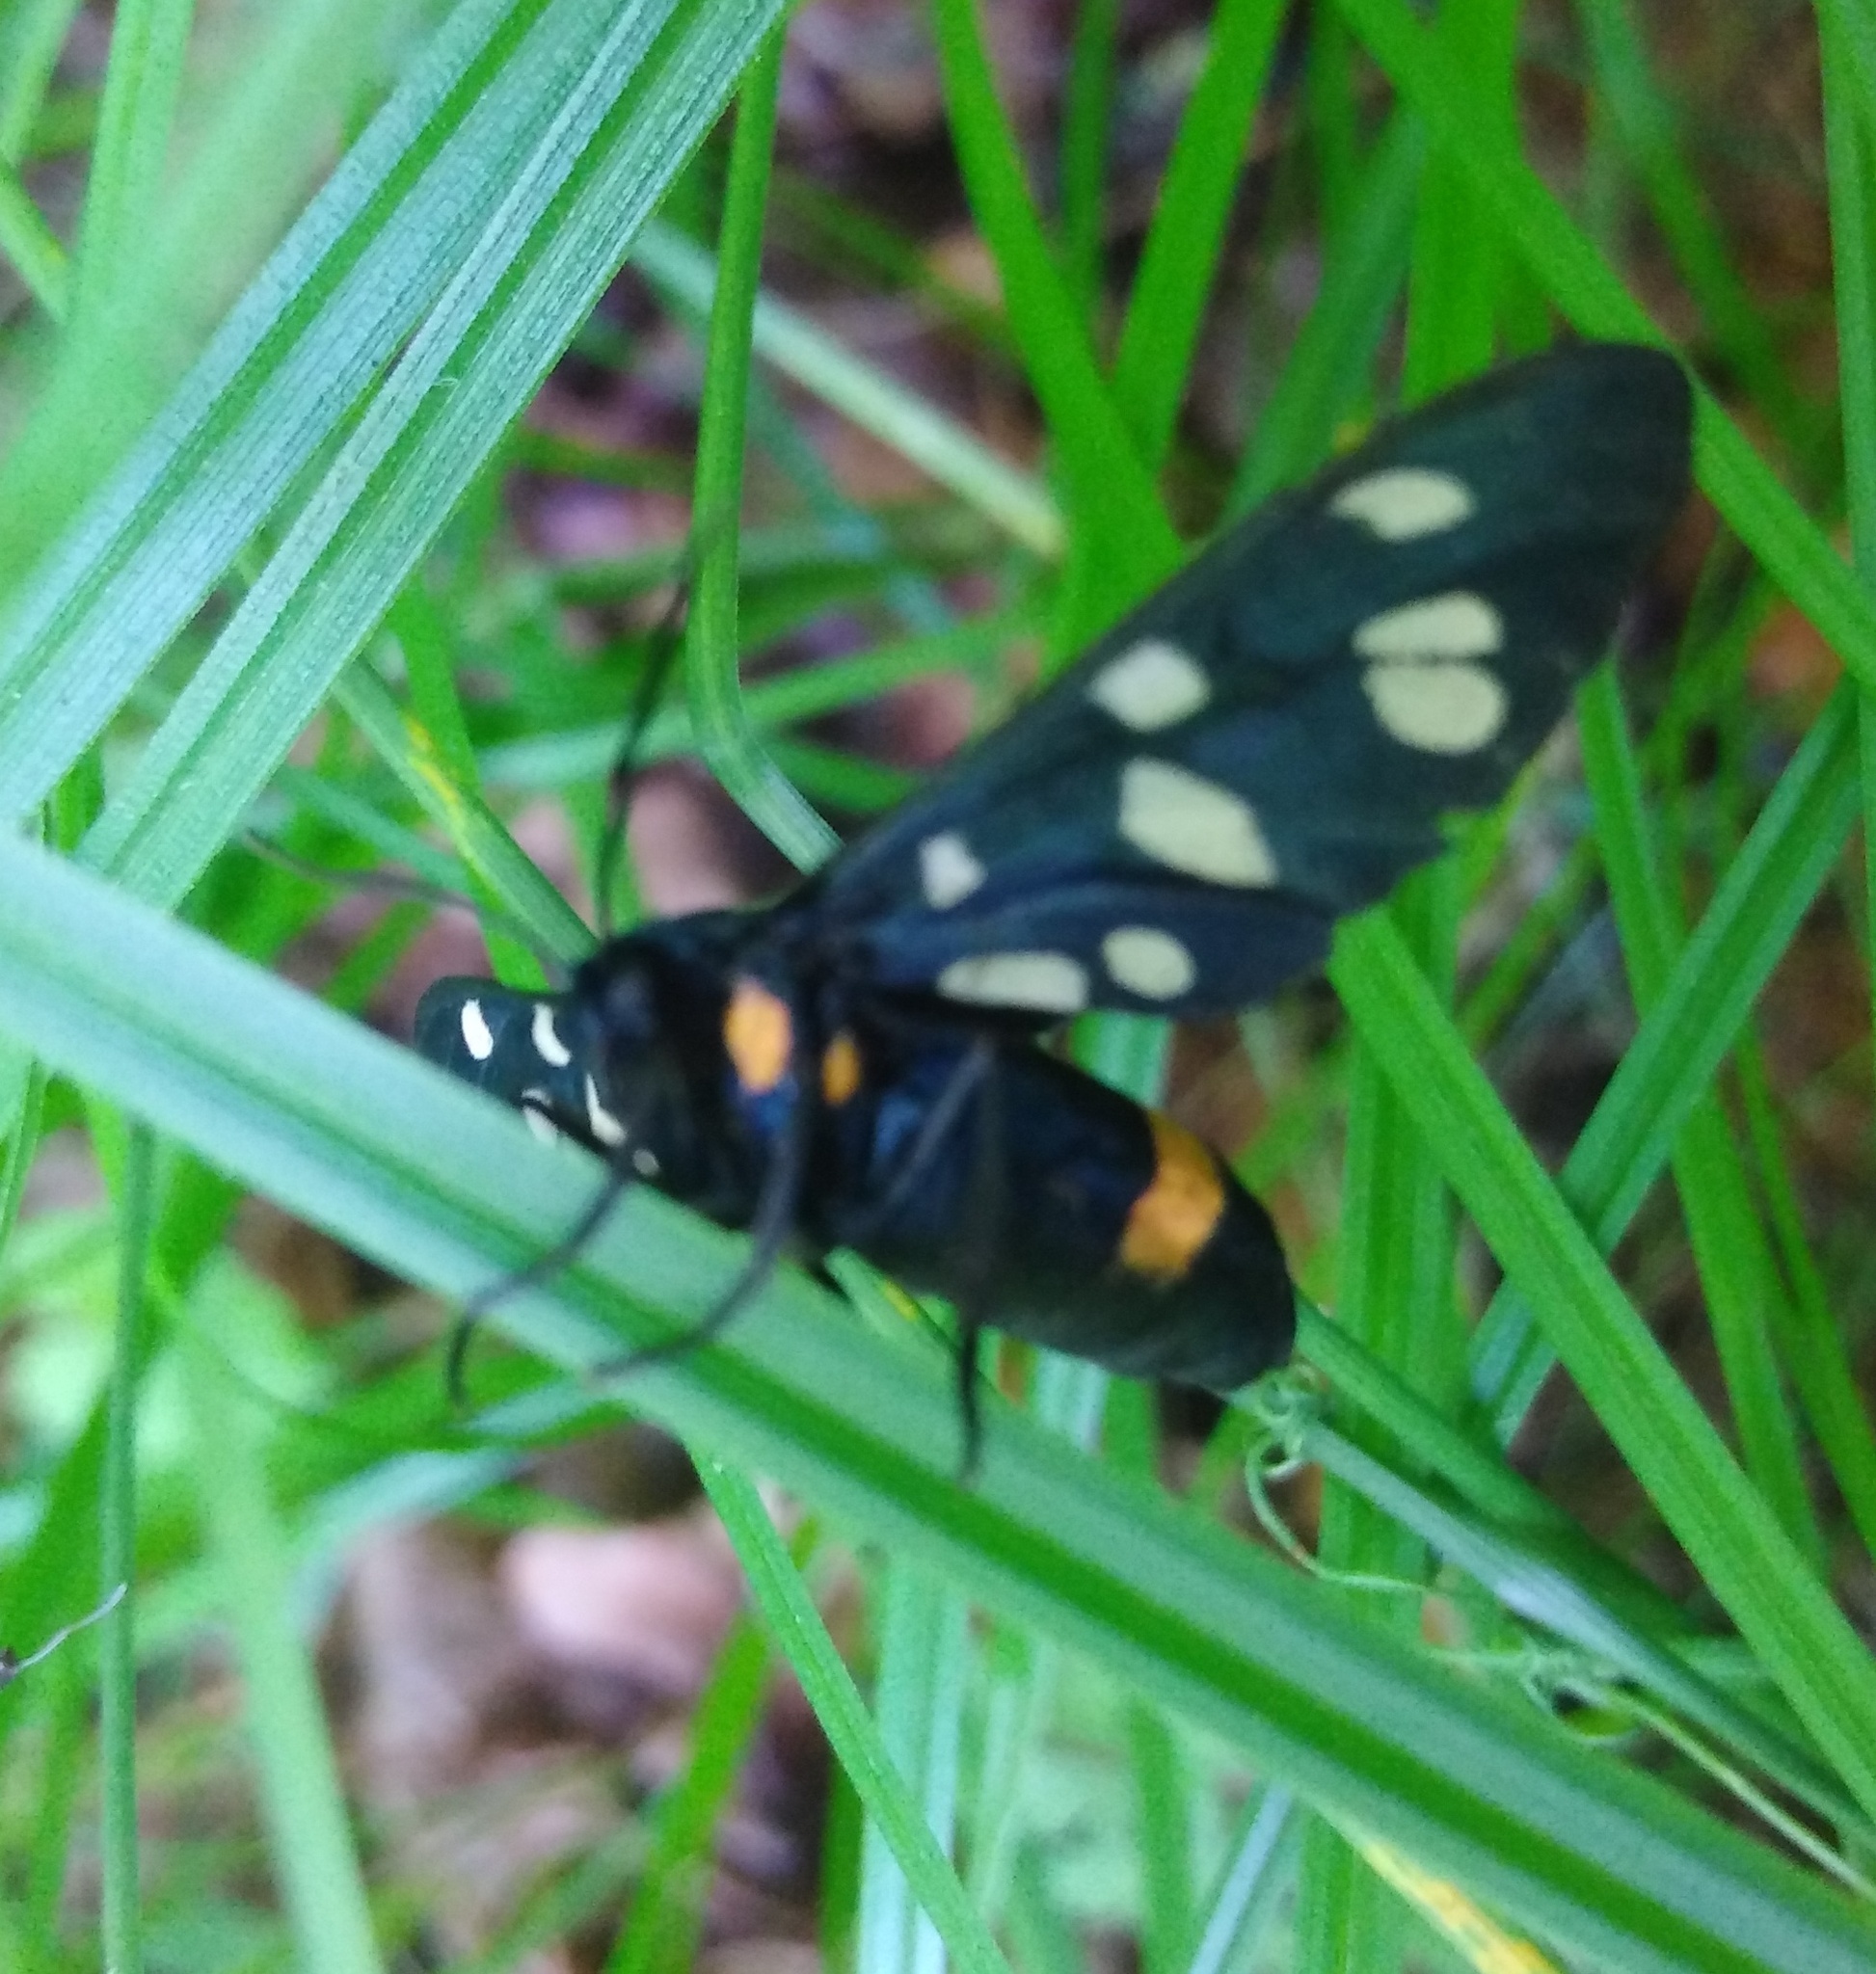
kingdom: Animalia
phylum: Arthropoda
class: Insecta
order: Lepidoptera
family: Erebidae
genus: Amata
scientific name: Amata nigricornis
